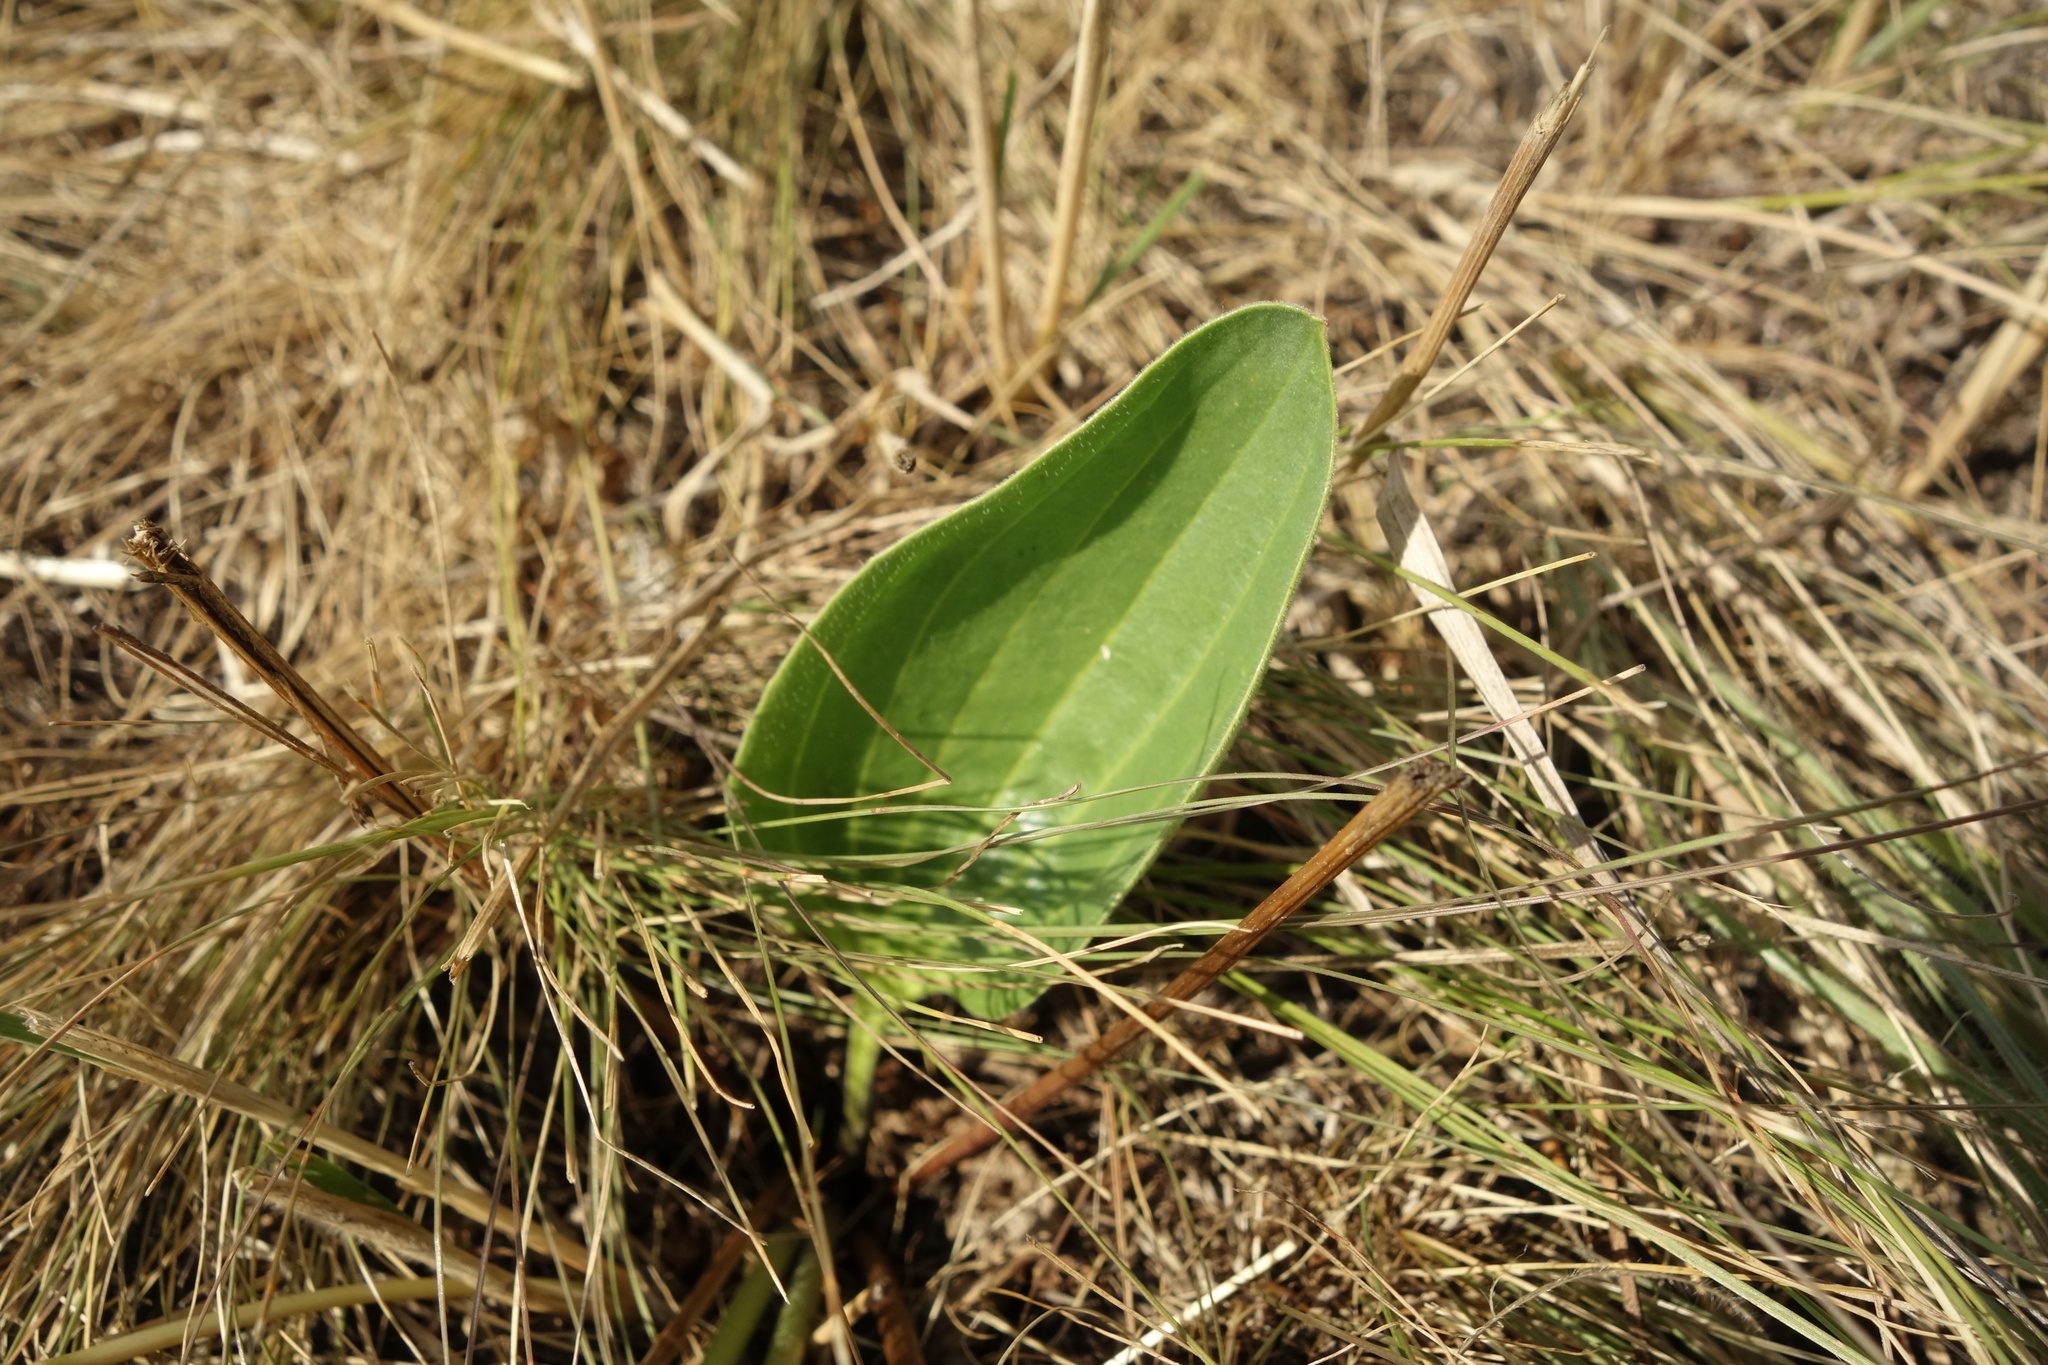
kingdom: Plantae
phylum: Tracheophyta
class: Magnoliopsida
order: Lamiales
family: Plantaginaceae
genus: Plantago
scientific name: Plantago maxima
